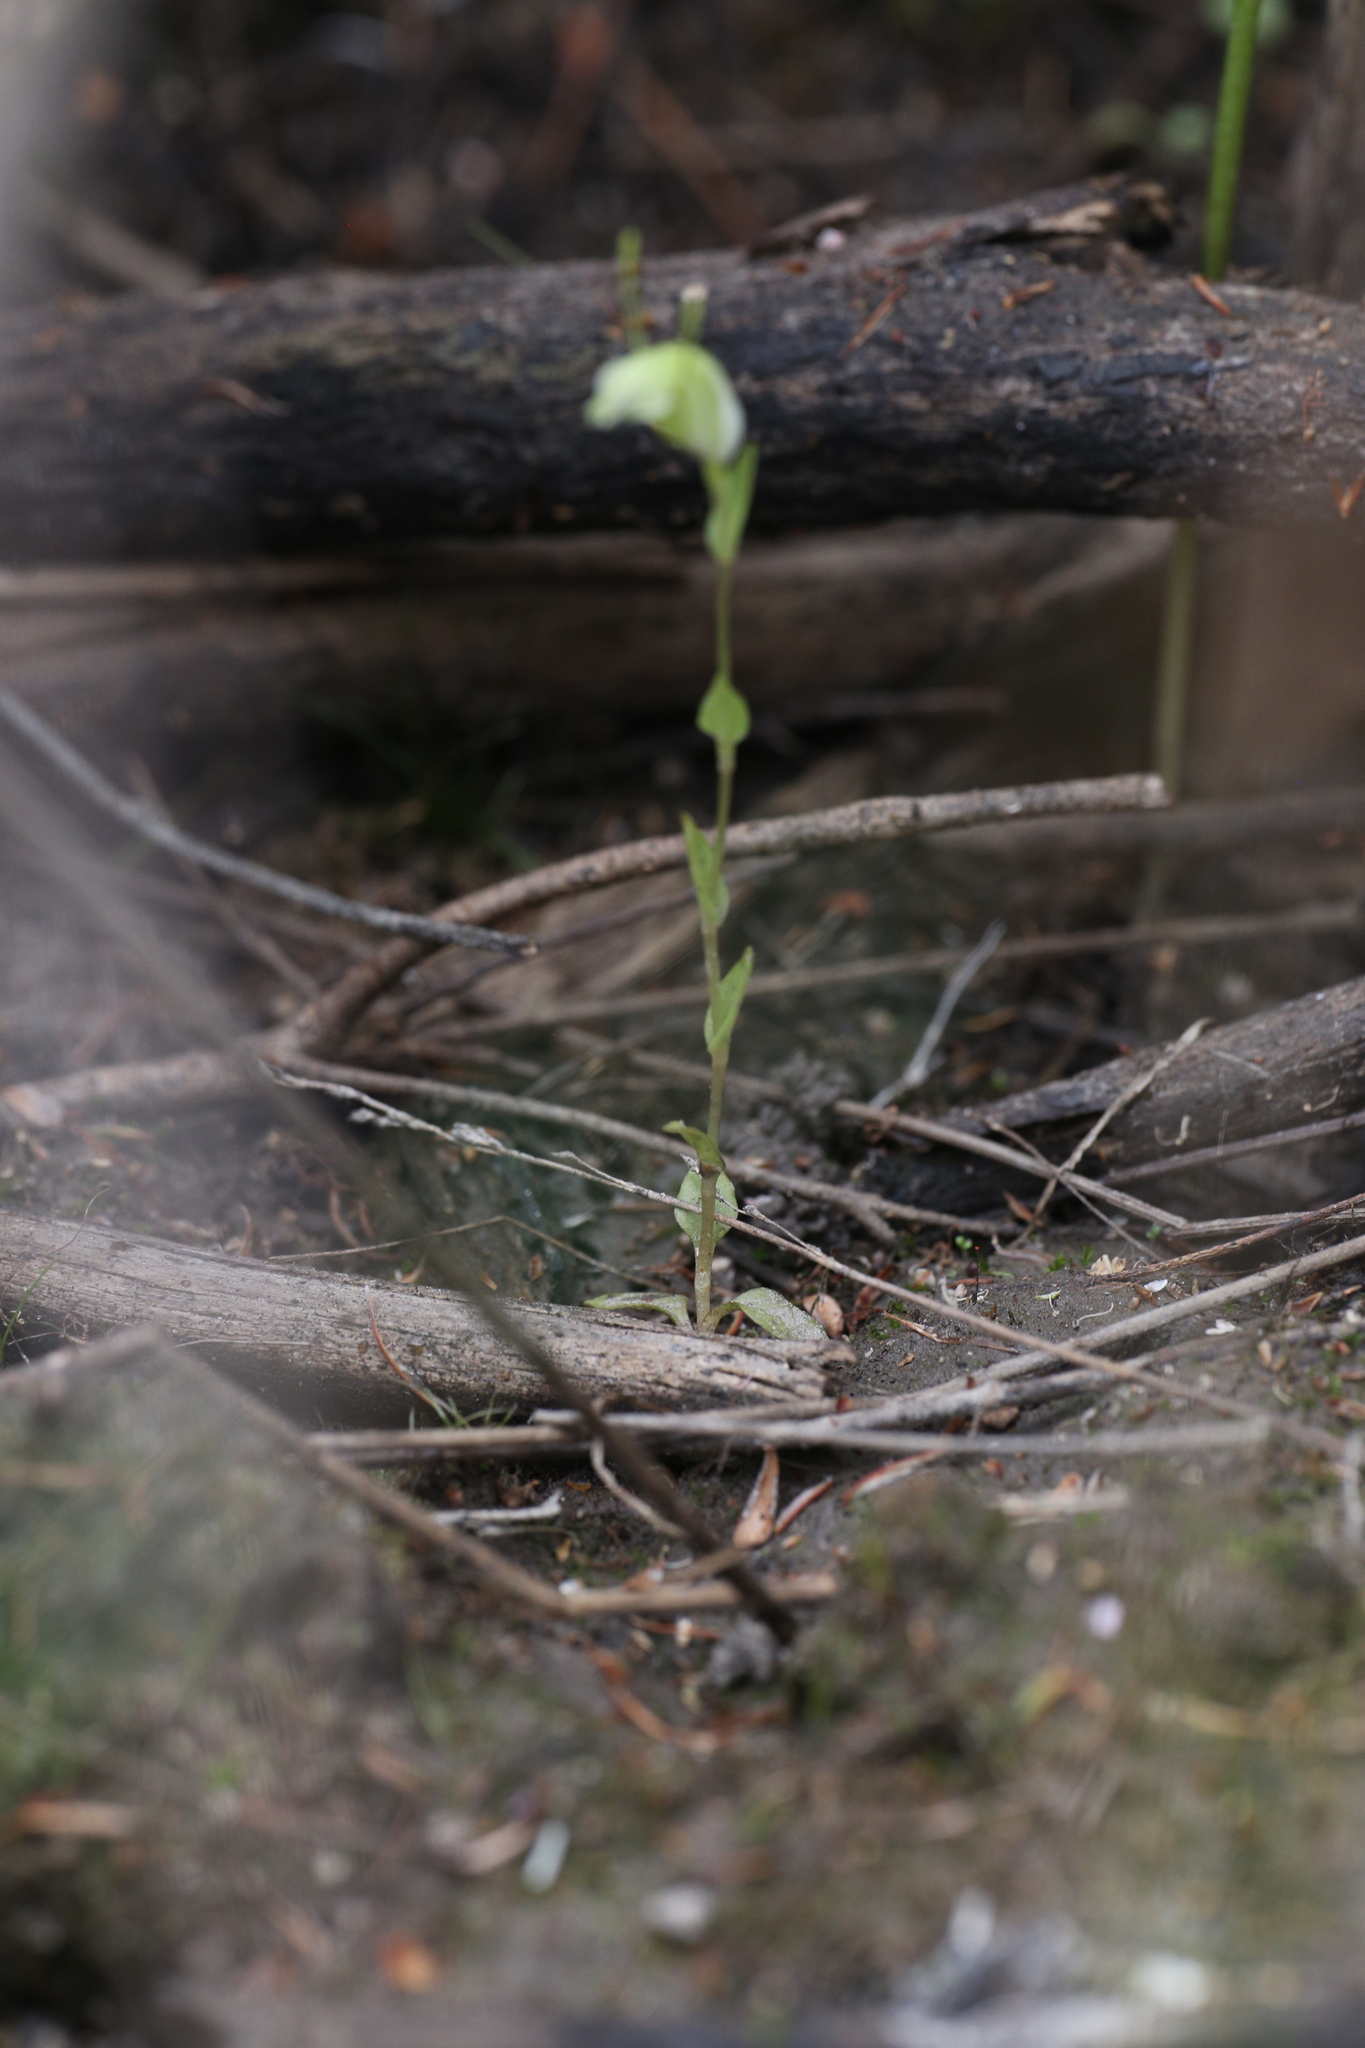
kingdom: Plantae
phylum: Tracheophyta
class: Liliopsida
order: Asparagales
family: Orchidaceae
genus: Pterostylis
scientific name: Pterostylis glebosa
